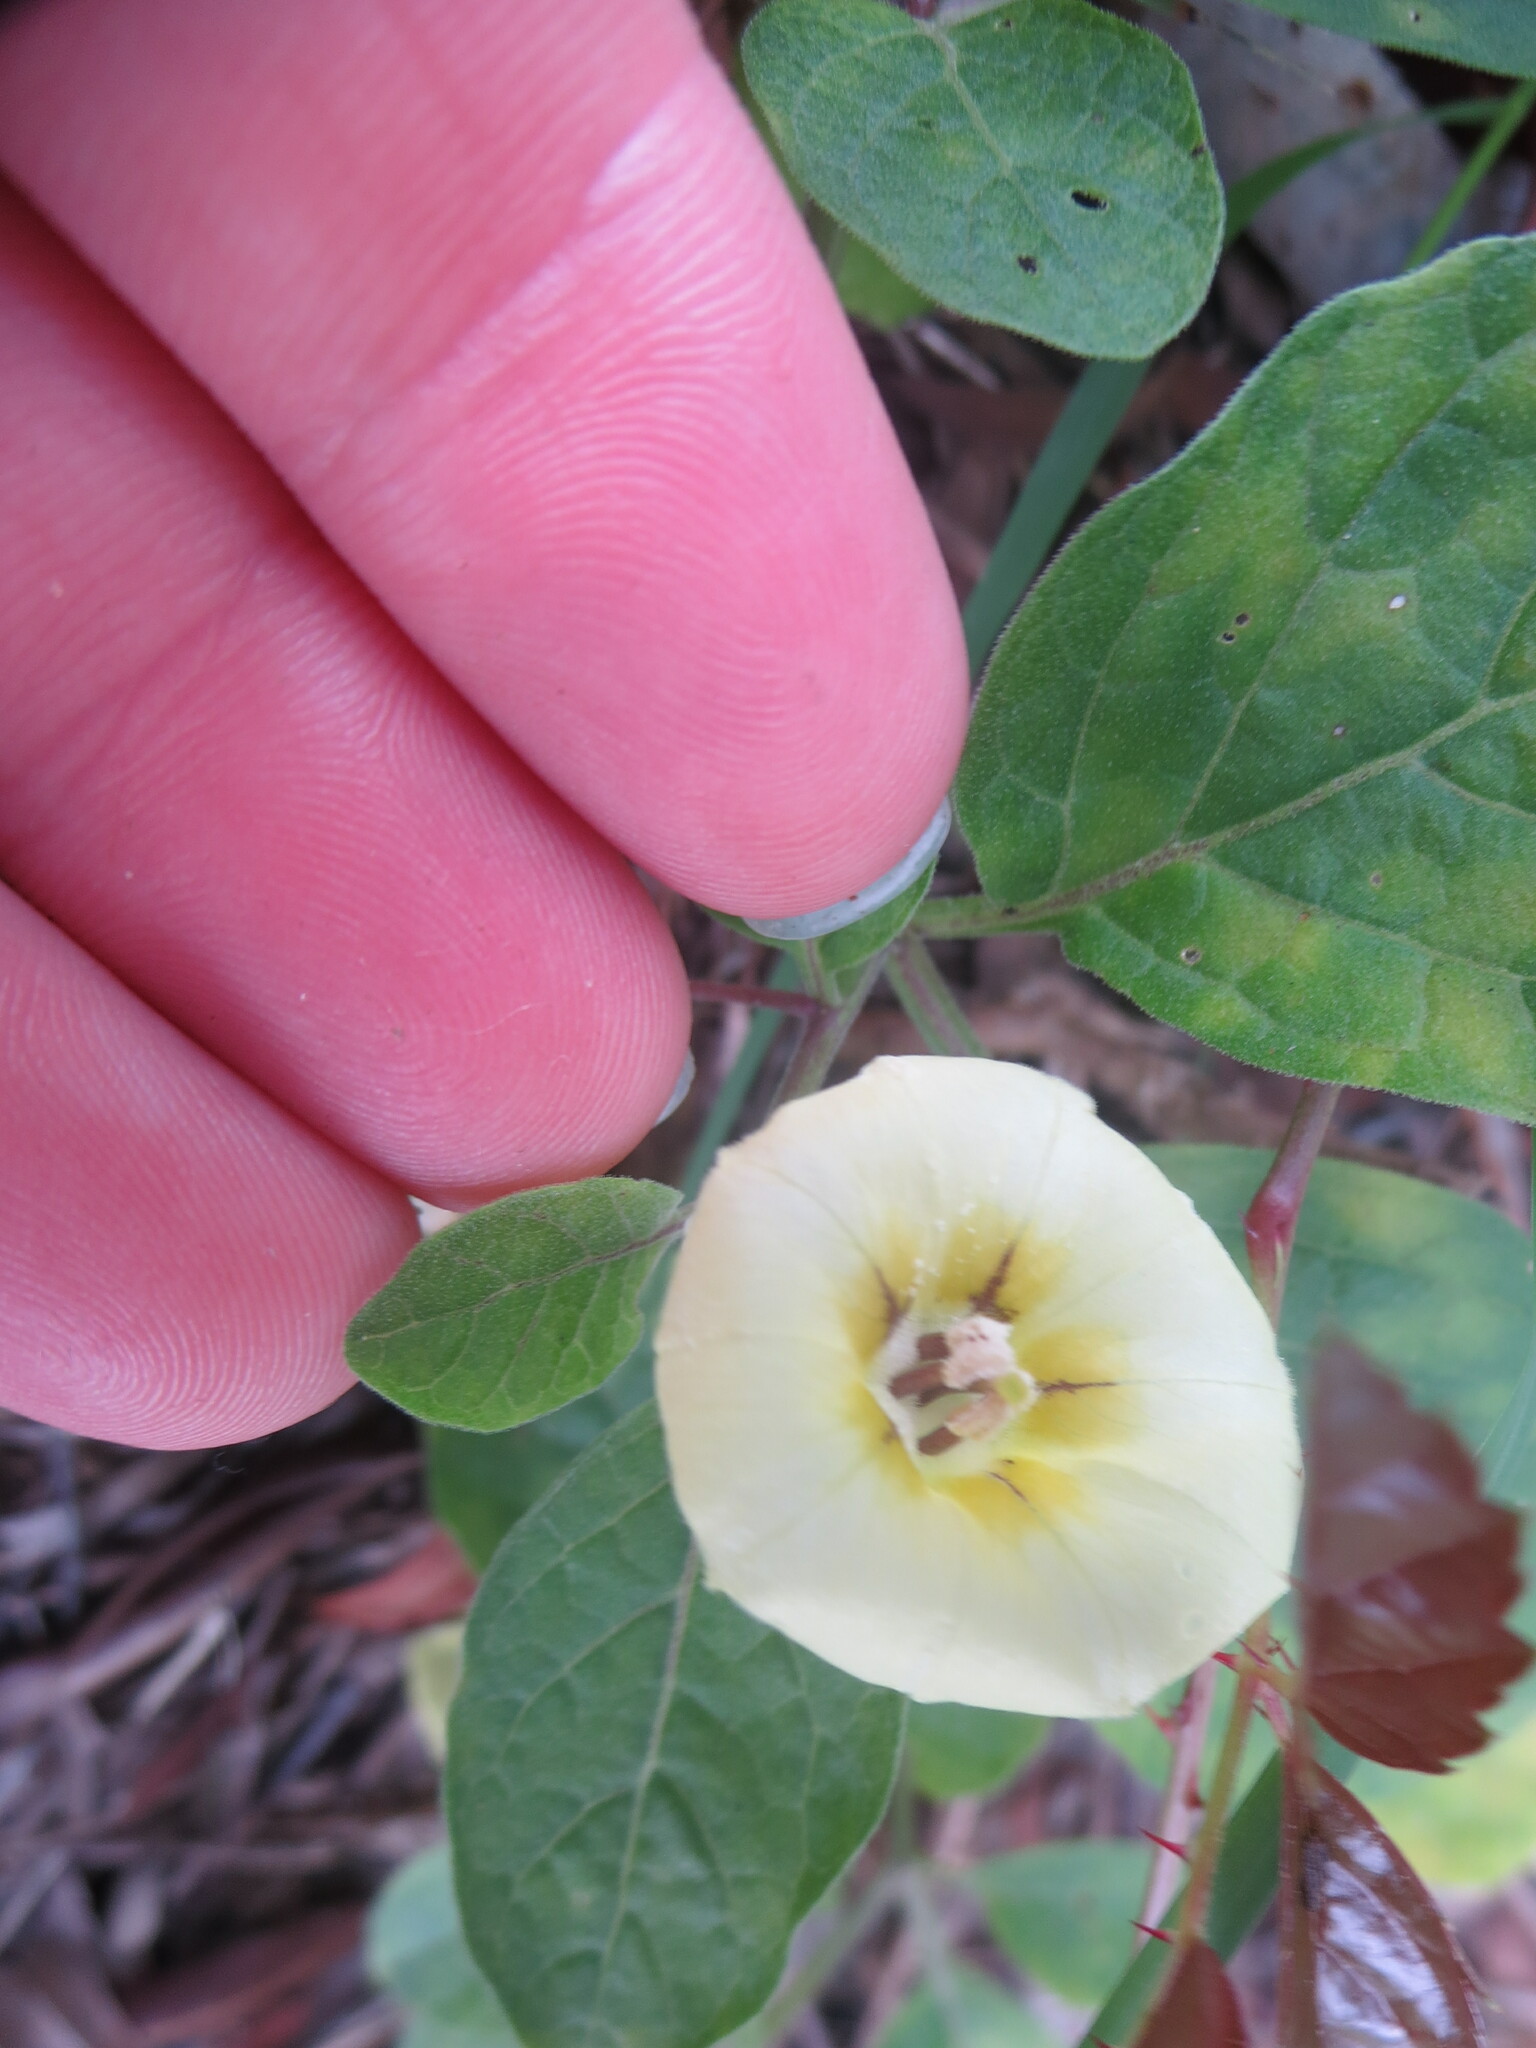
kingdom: Plantae
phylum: Tracheophyta
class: Magnoliopsida
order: Solanales
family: Solanaceae
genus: Physalis
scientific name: Physalis walteri
